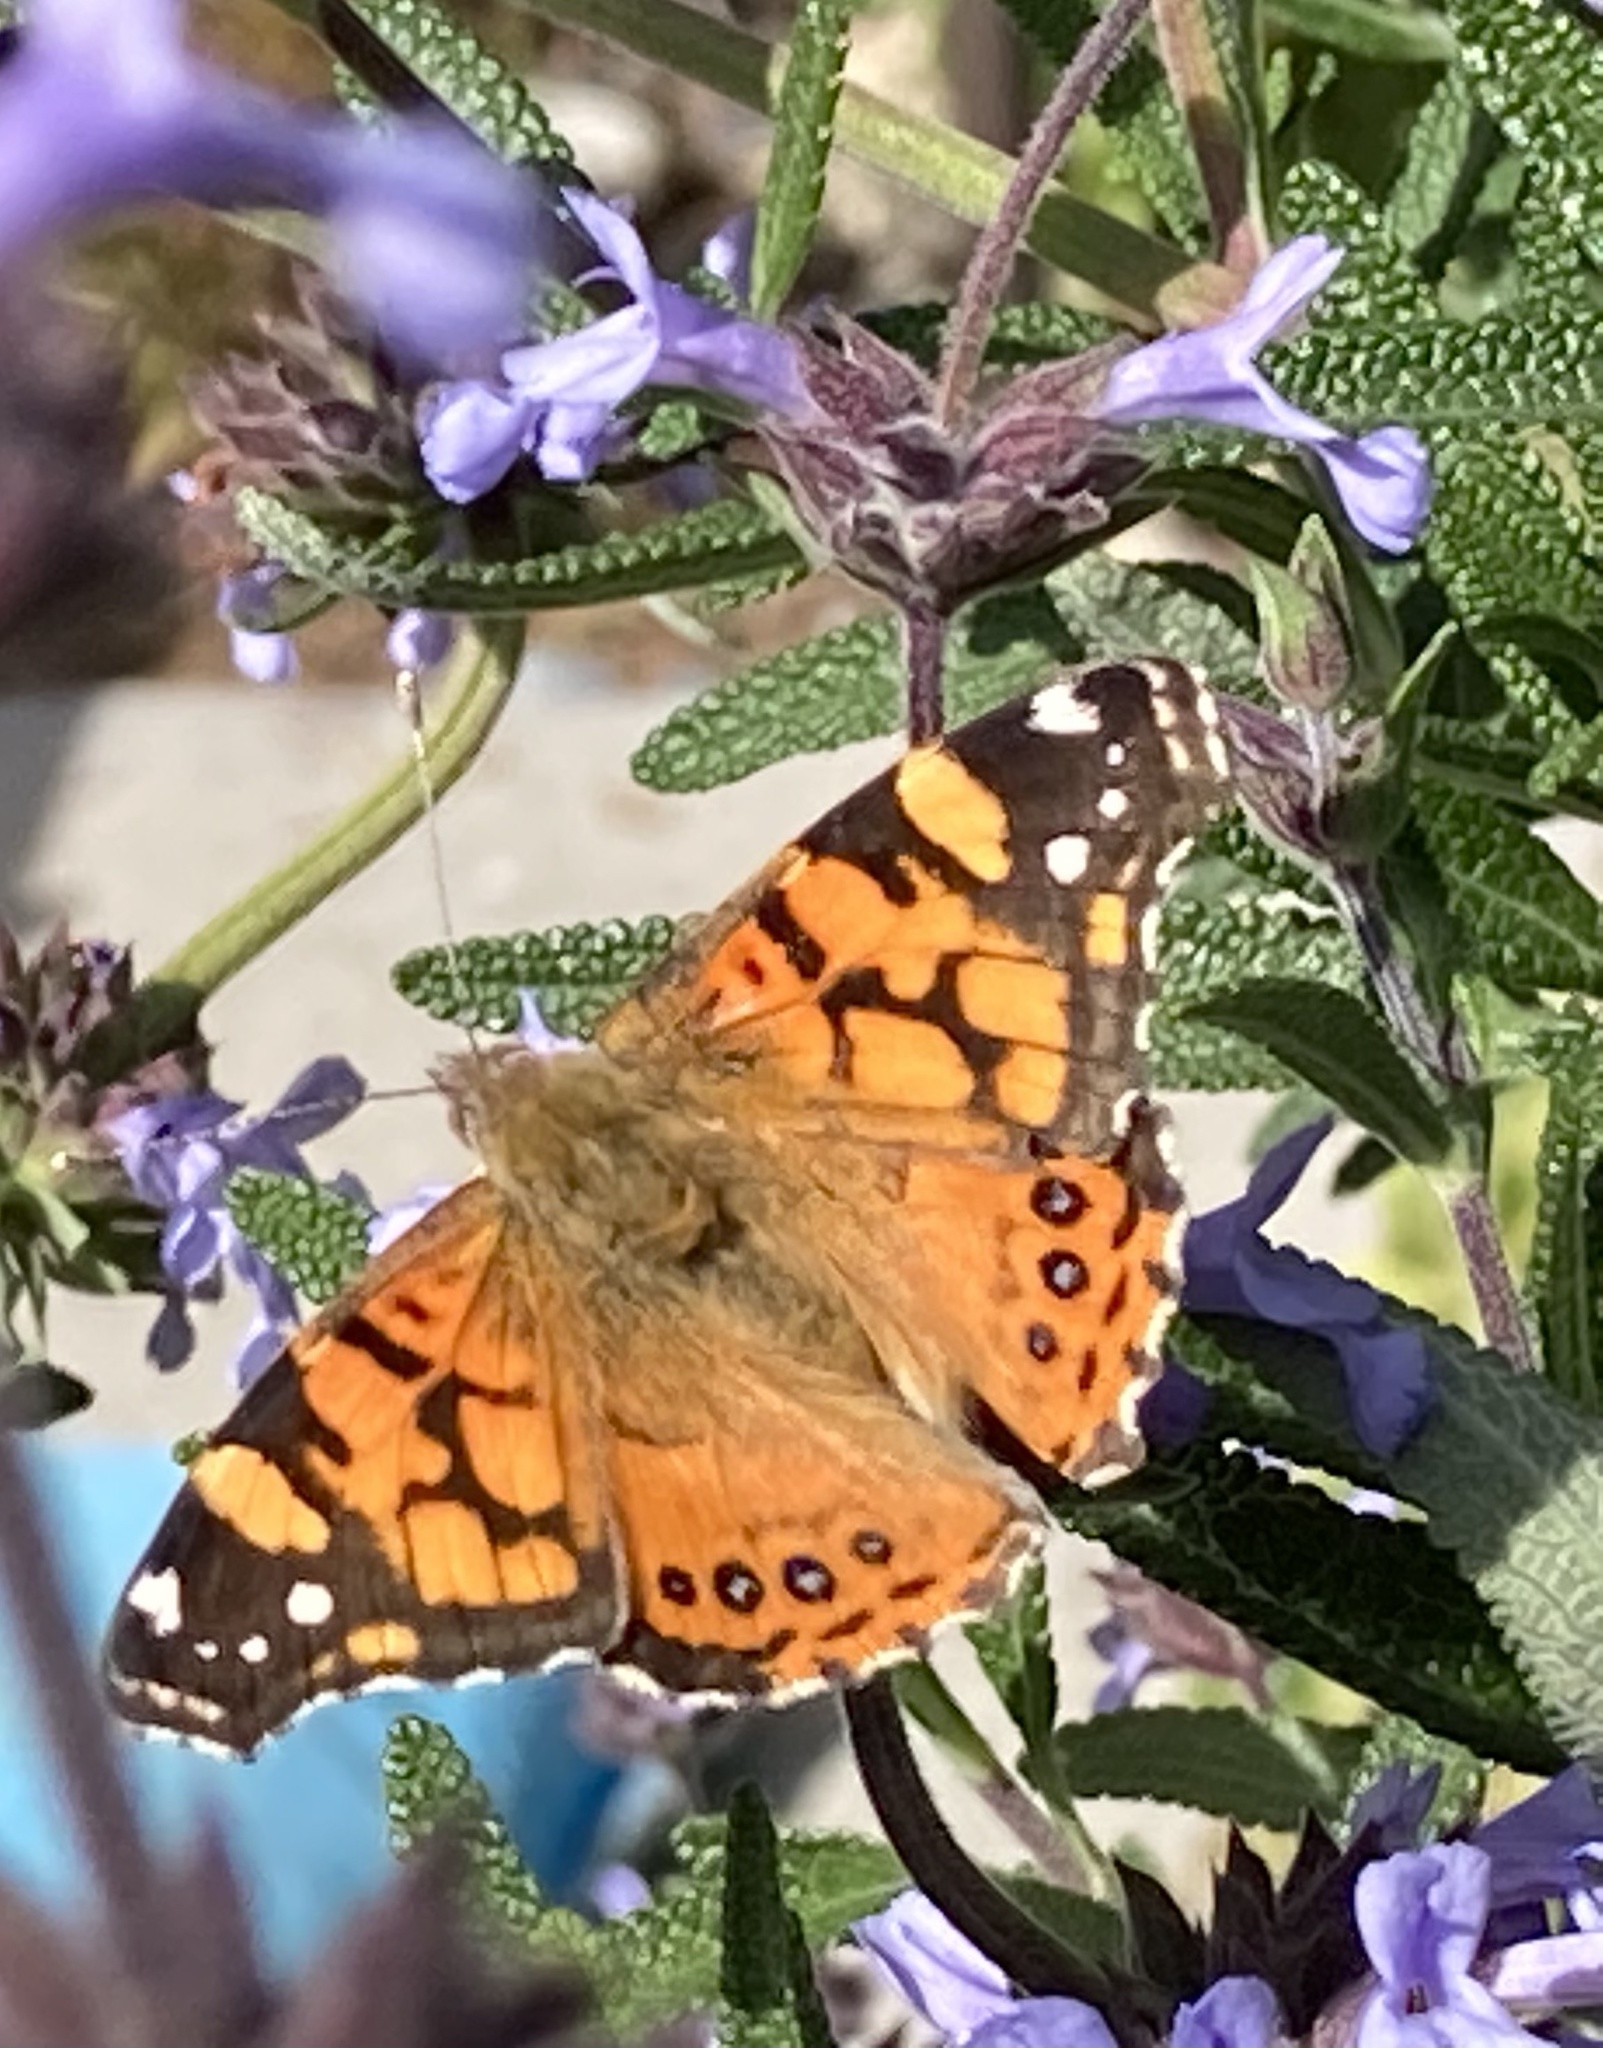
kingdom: Animalia
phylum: Arthropoda
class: Insecta
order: Lepidoptera
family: Nymphalidae
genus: Vanessa
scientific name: Vanessa annabella
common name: West coast lady
